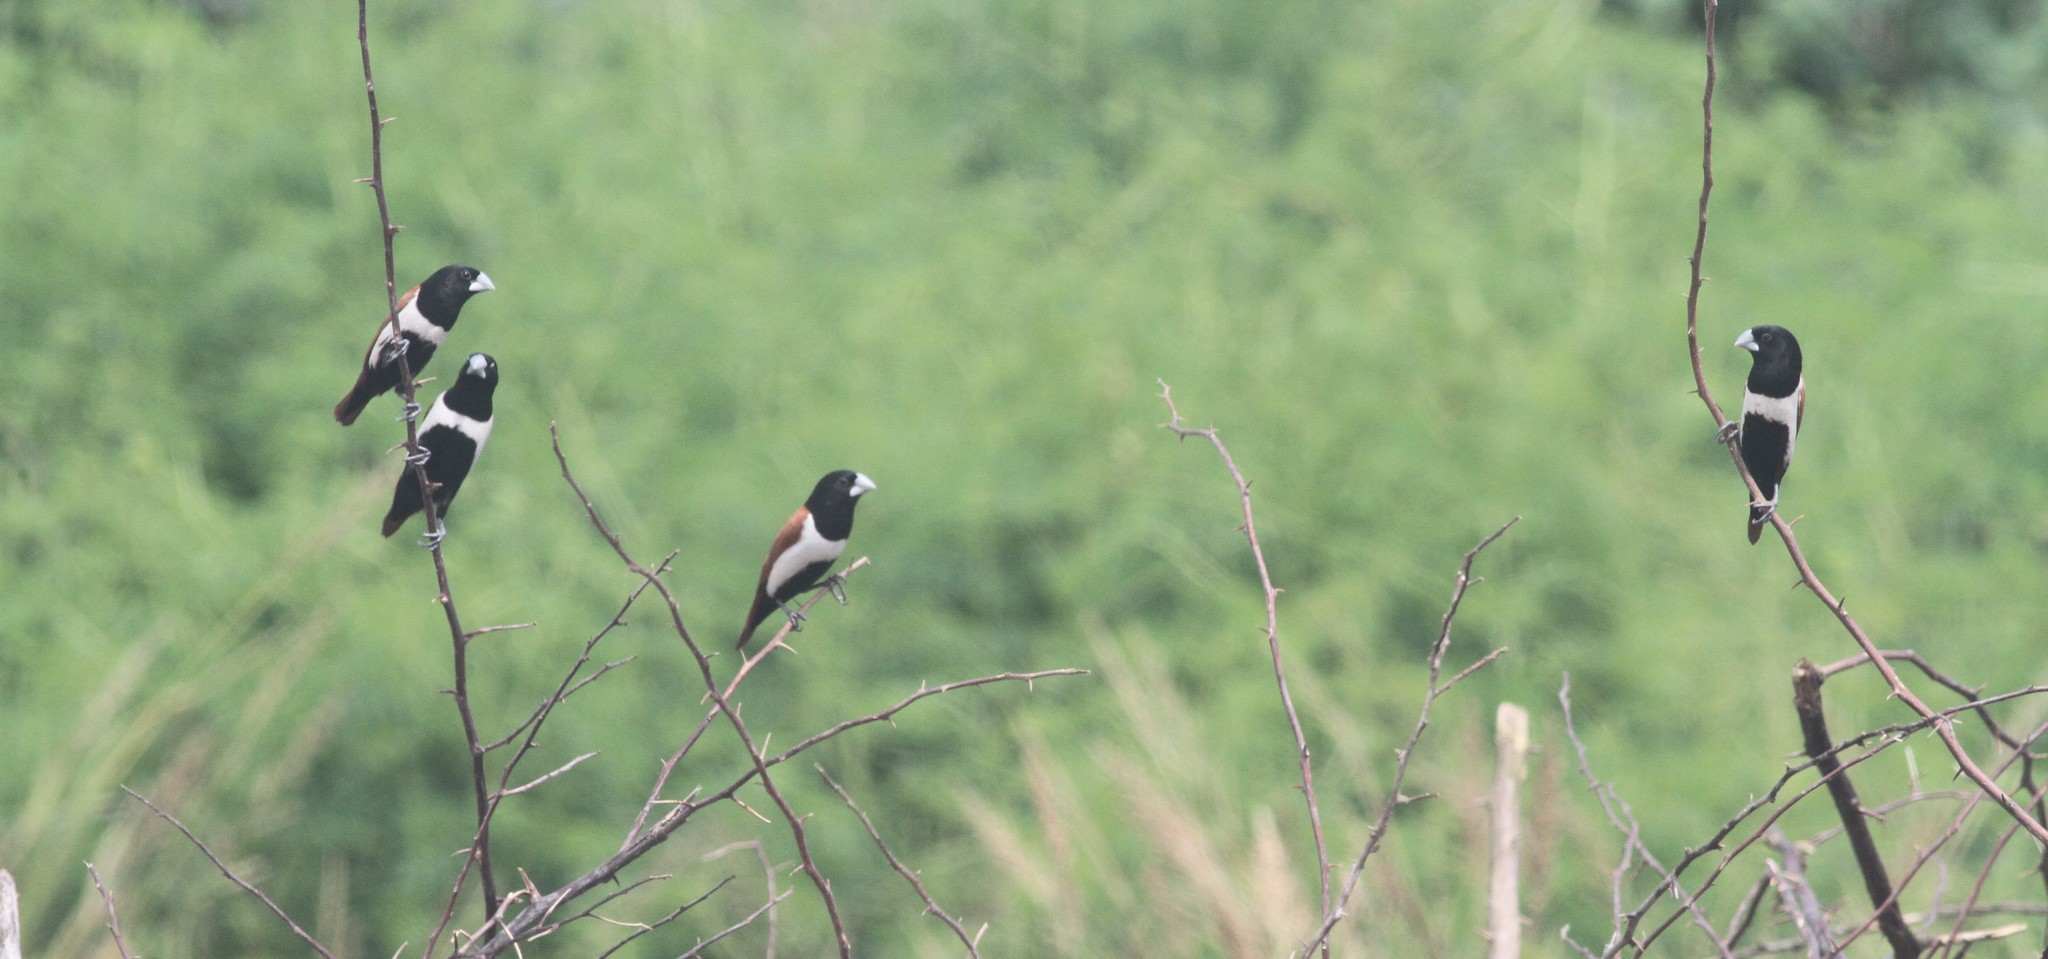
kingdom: Animalia
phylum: Chordata
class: Aves
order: Passeriformes
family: Estrildidae
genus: Lonchura
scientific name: Lonchura malacca
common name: Tricolored munia
